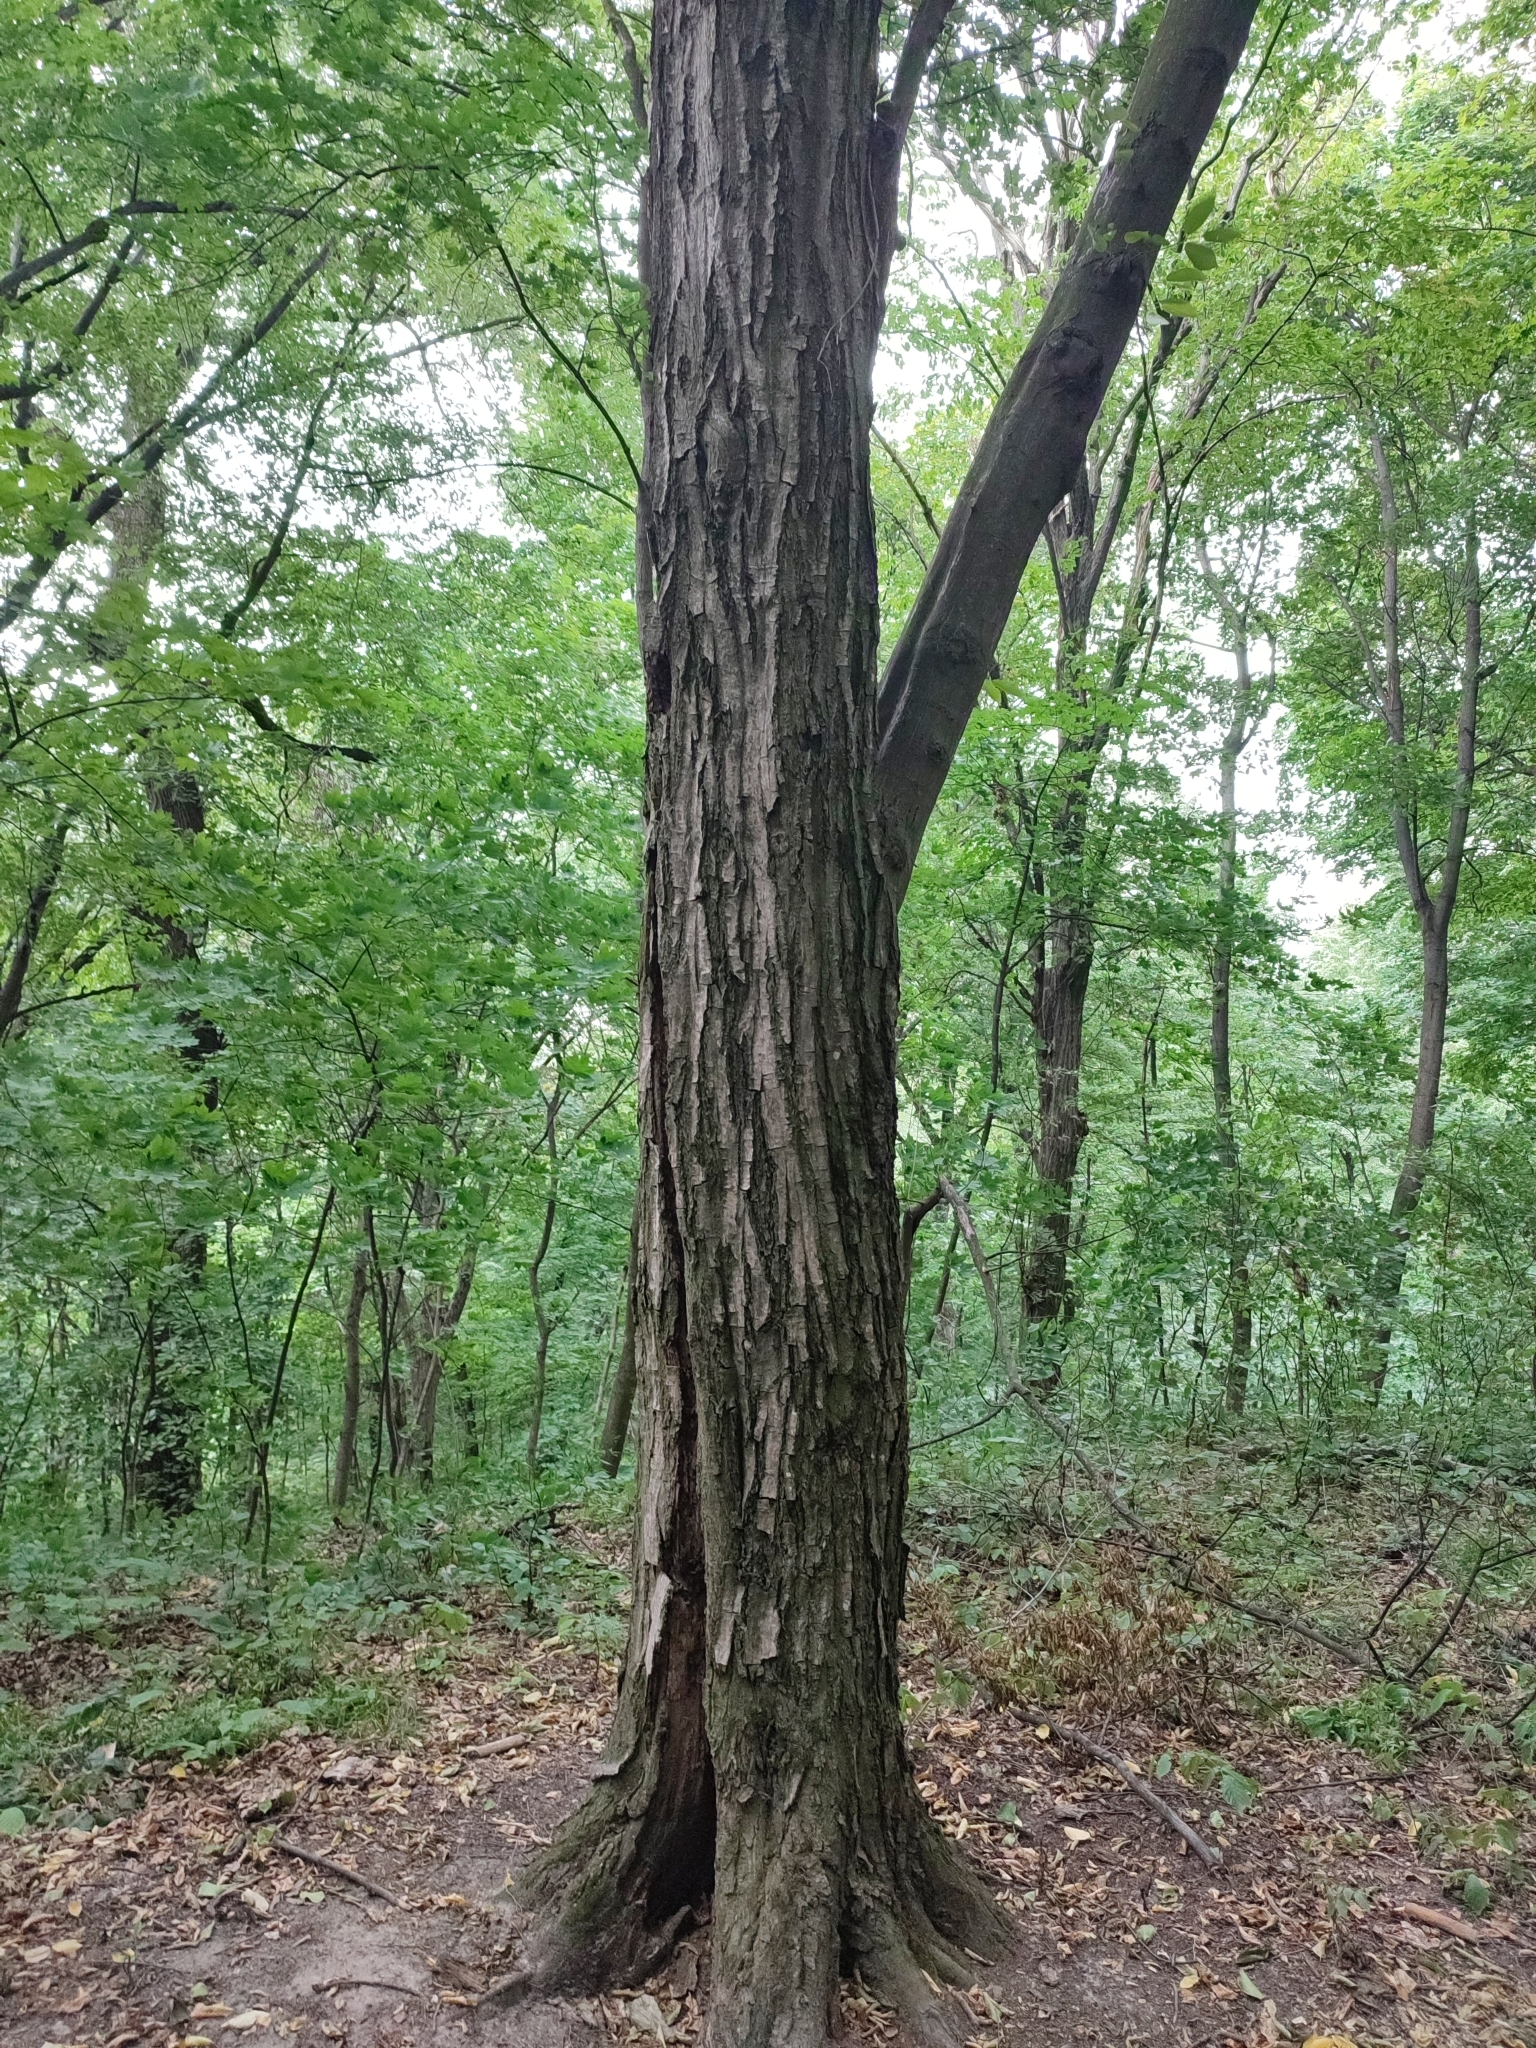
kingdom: Plantae
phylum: Tracheophyta
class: Magnoliopsida
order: Fagales
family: Betulaceae
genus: Carpinus
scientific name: Carpinus betulus
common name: Hornbeam
